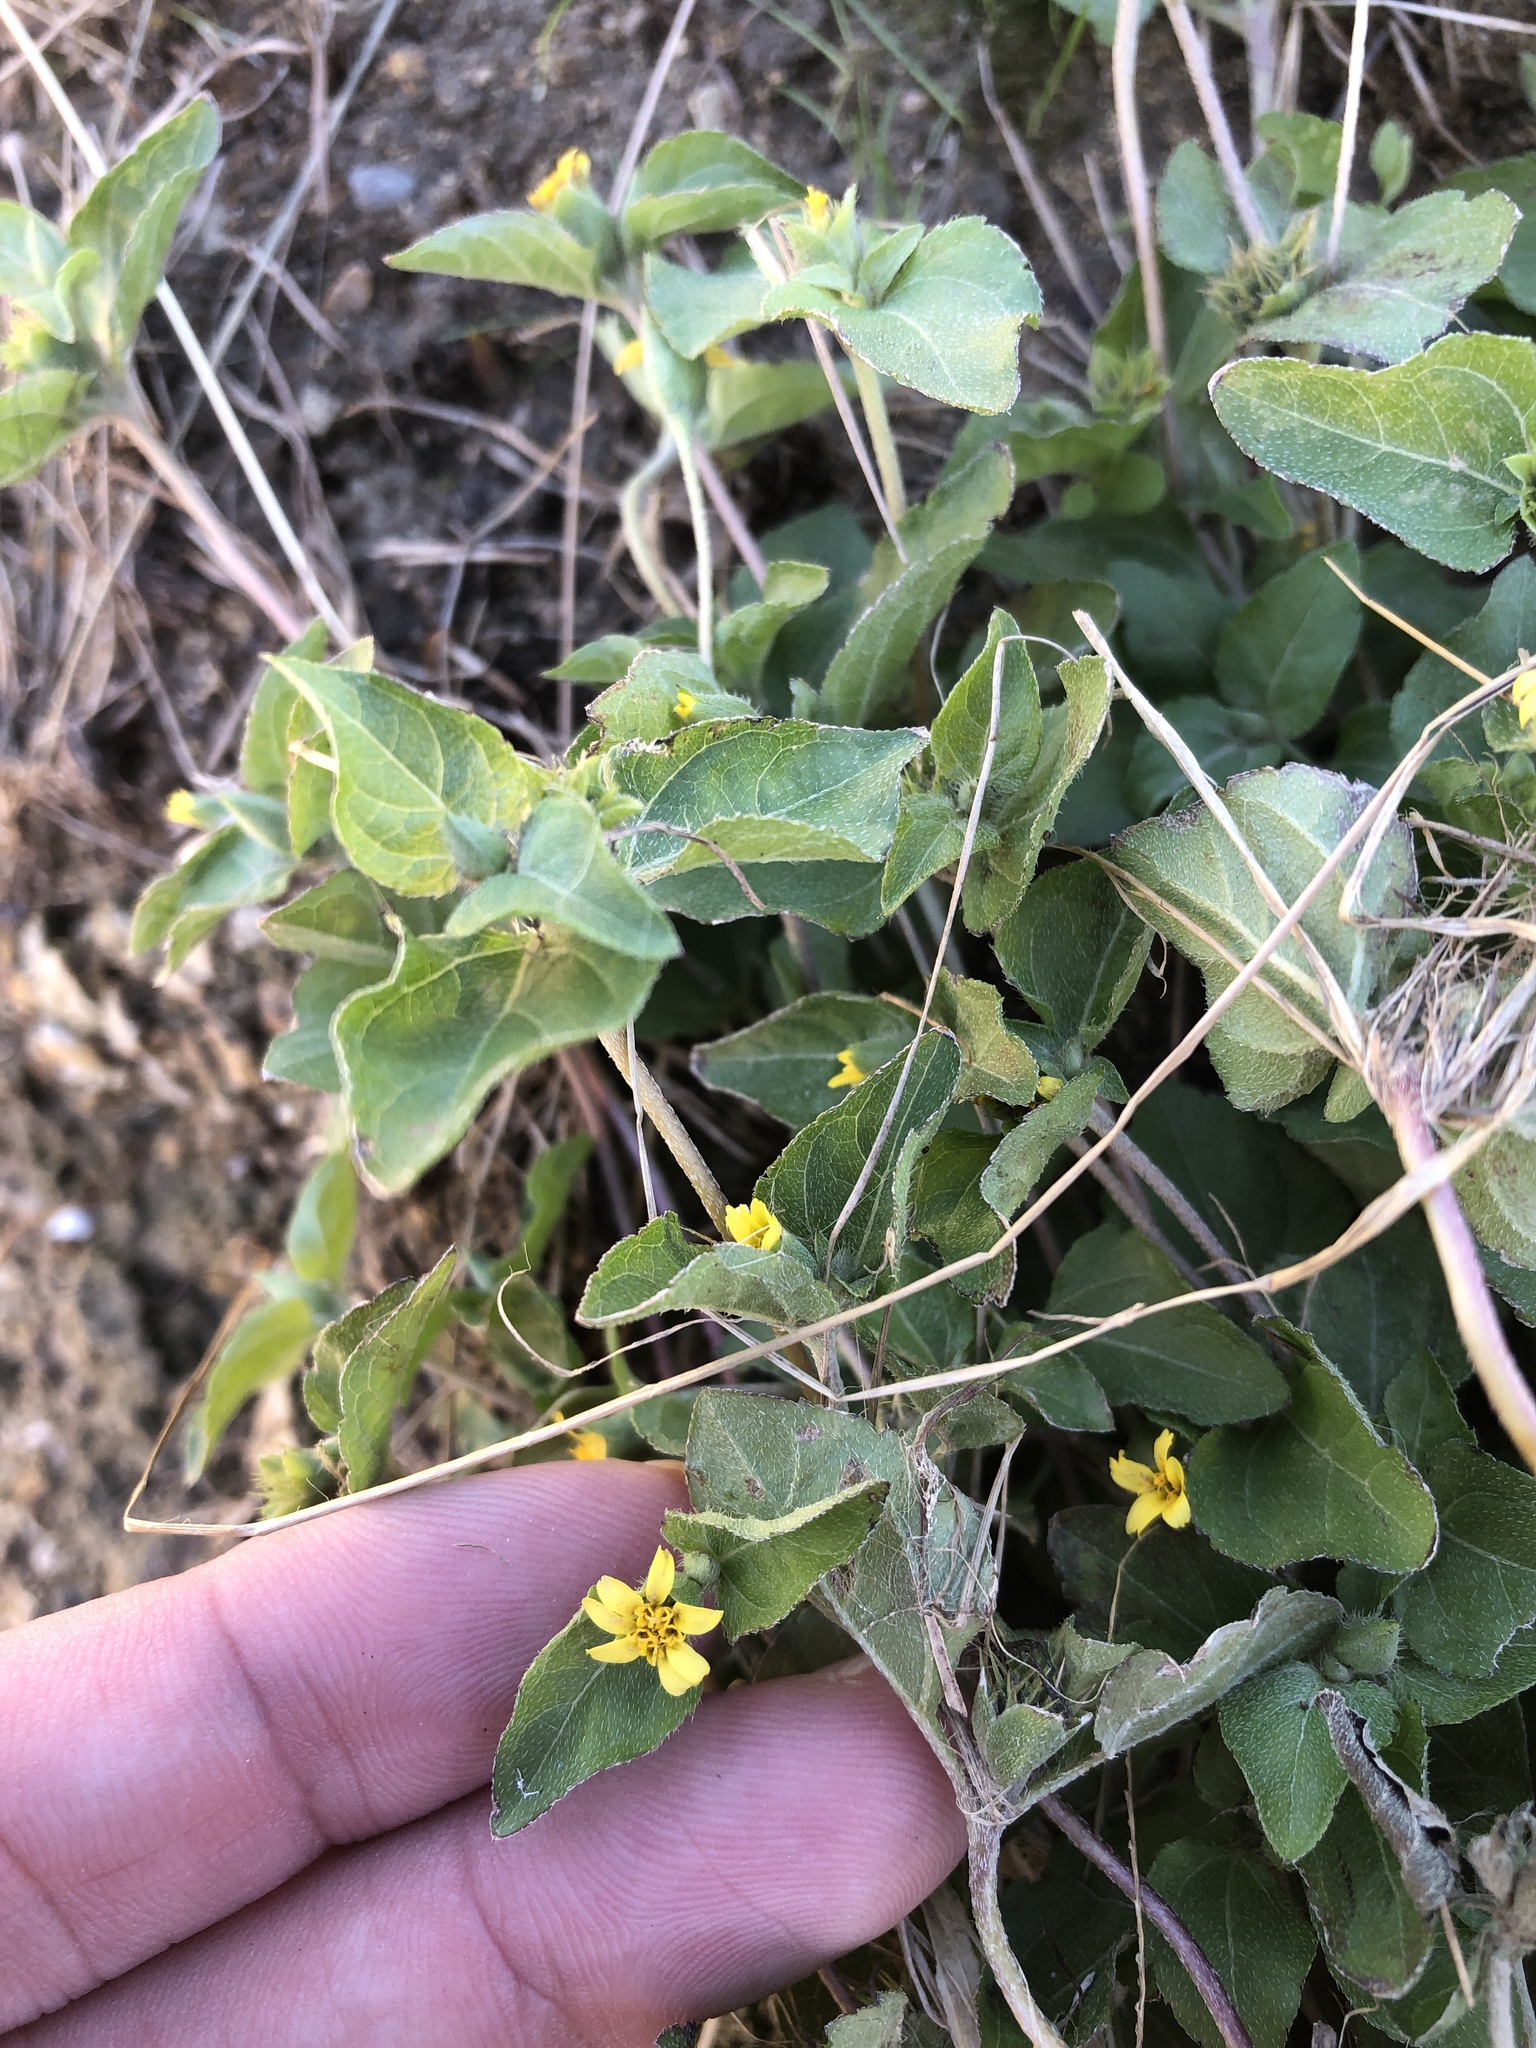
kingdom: Plantae
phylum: Tracheophyta
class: Magnoliopsida
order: Asterales
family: Asteraceae
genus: Calyptocarpus
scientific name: Calyptocarpus vialis
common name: Straggler daisy
